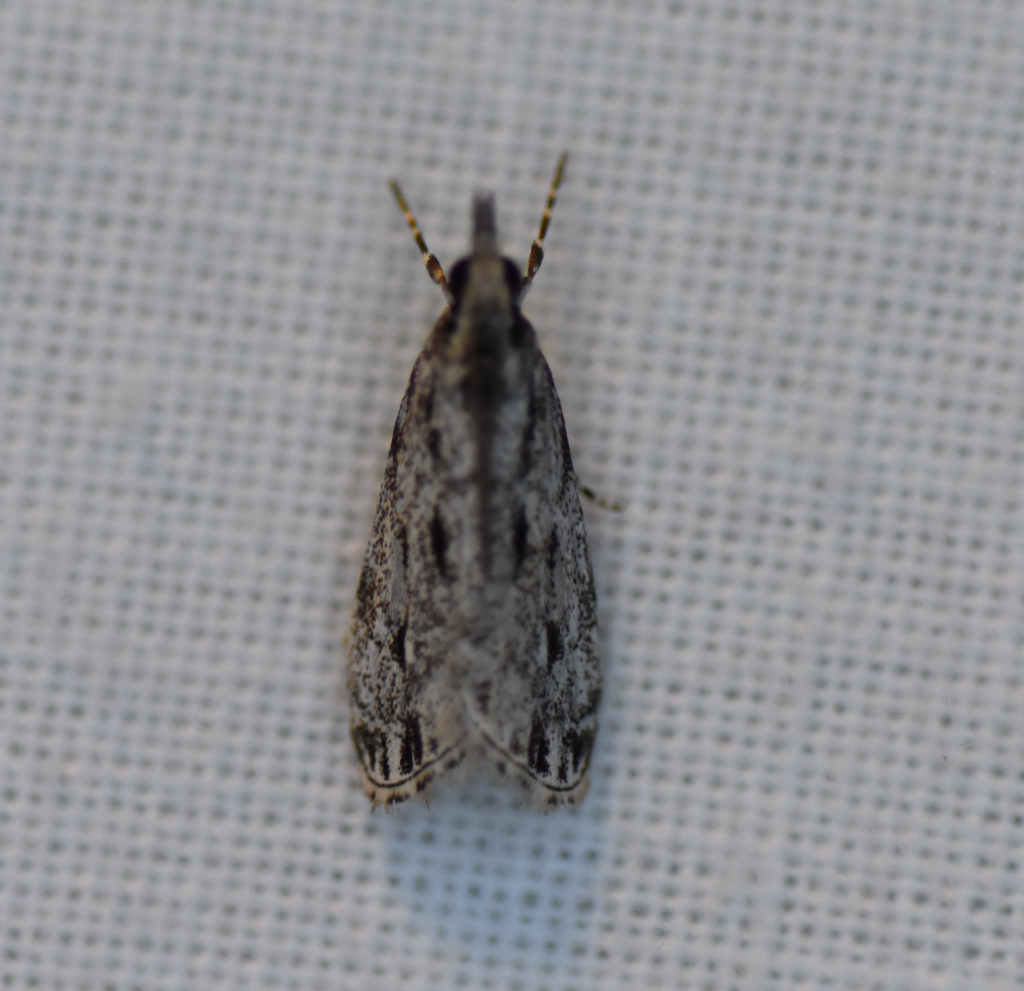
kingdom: Animalia
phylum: Arthropoda
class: Insecta
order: Lepidoptera
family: Crambidae
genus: Eudonia
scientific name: Eudonia strigalis
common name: Striped eudonia moth
